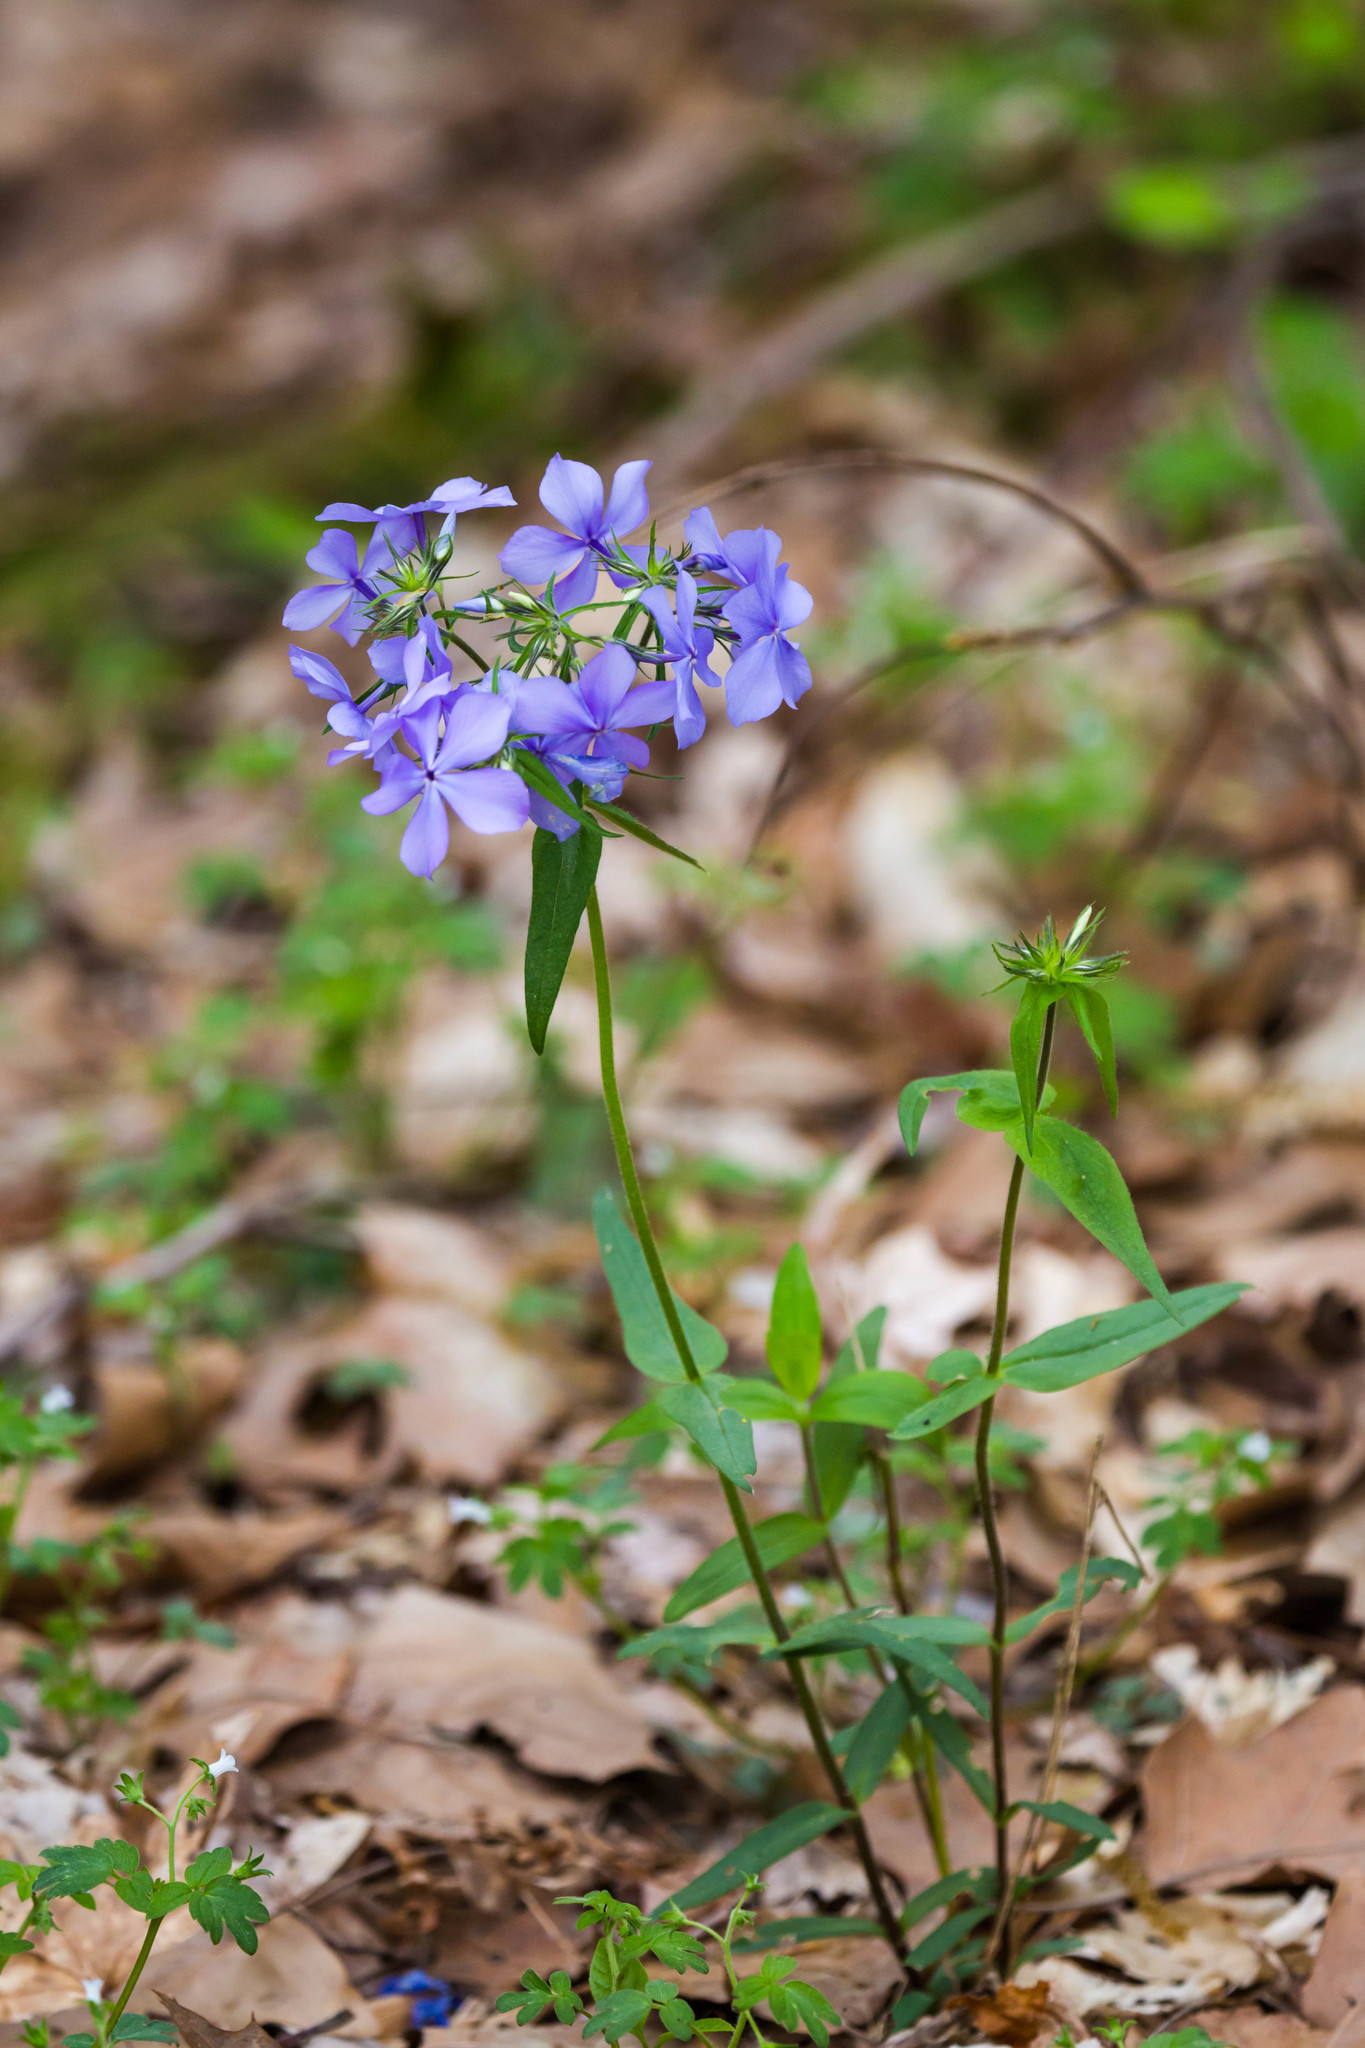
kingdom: Plantae
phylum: Tracheophyta
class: Magnoliopsida
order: Ericales
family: Polemoniaceae
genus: Phlox
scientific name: Phlox divaricata
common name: Blue phlox
